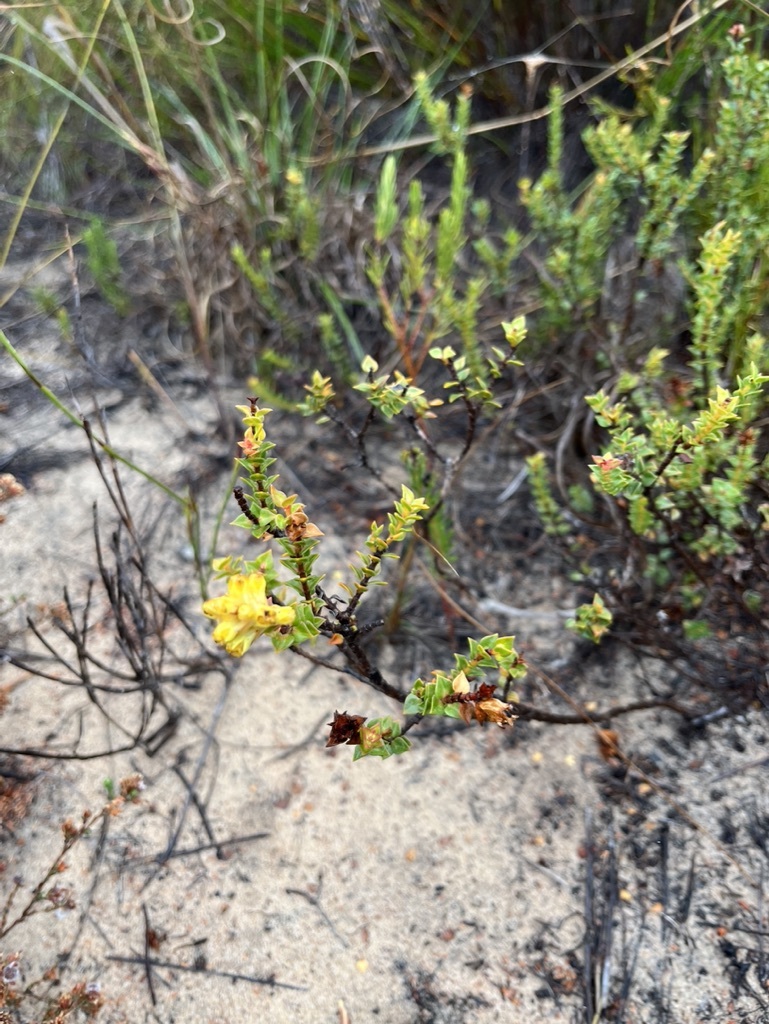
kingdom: Plantae
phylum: Tracheophyta
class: Magnoliopsida
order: Myrtales
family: Penaeaceae
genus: Penaea
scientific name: Penaea mucronata
